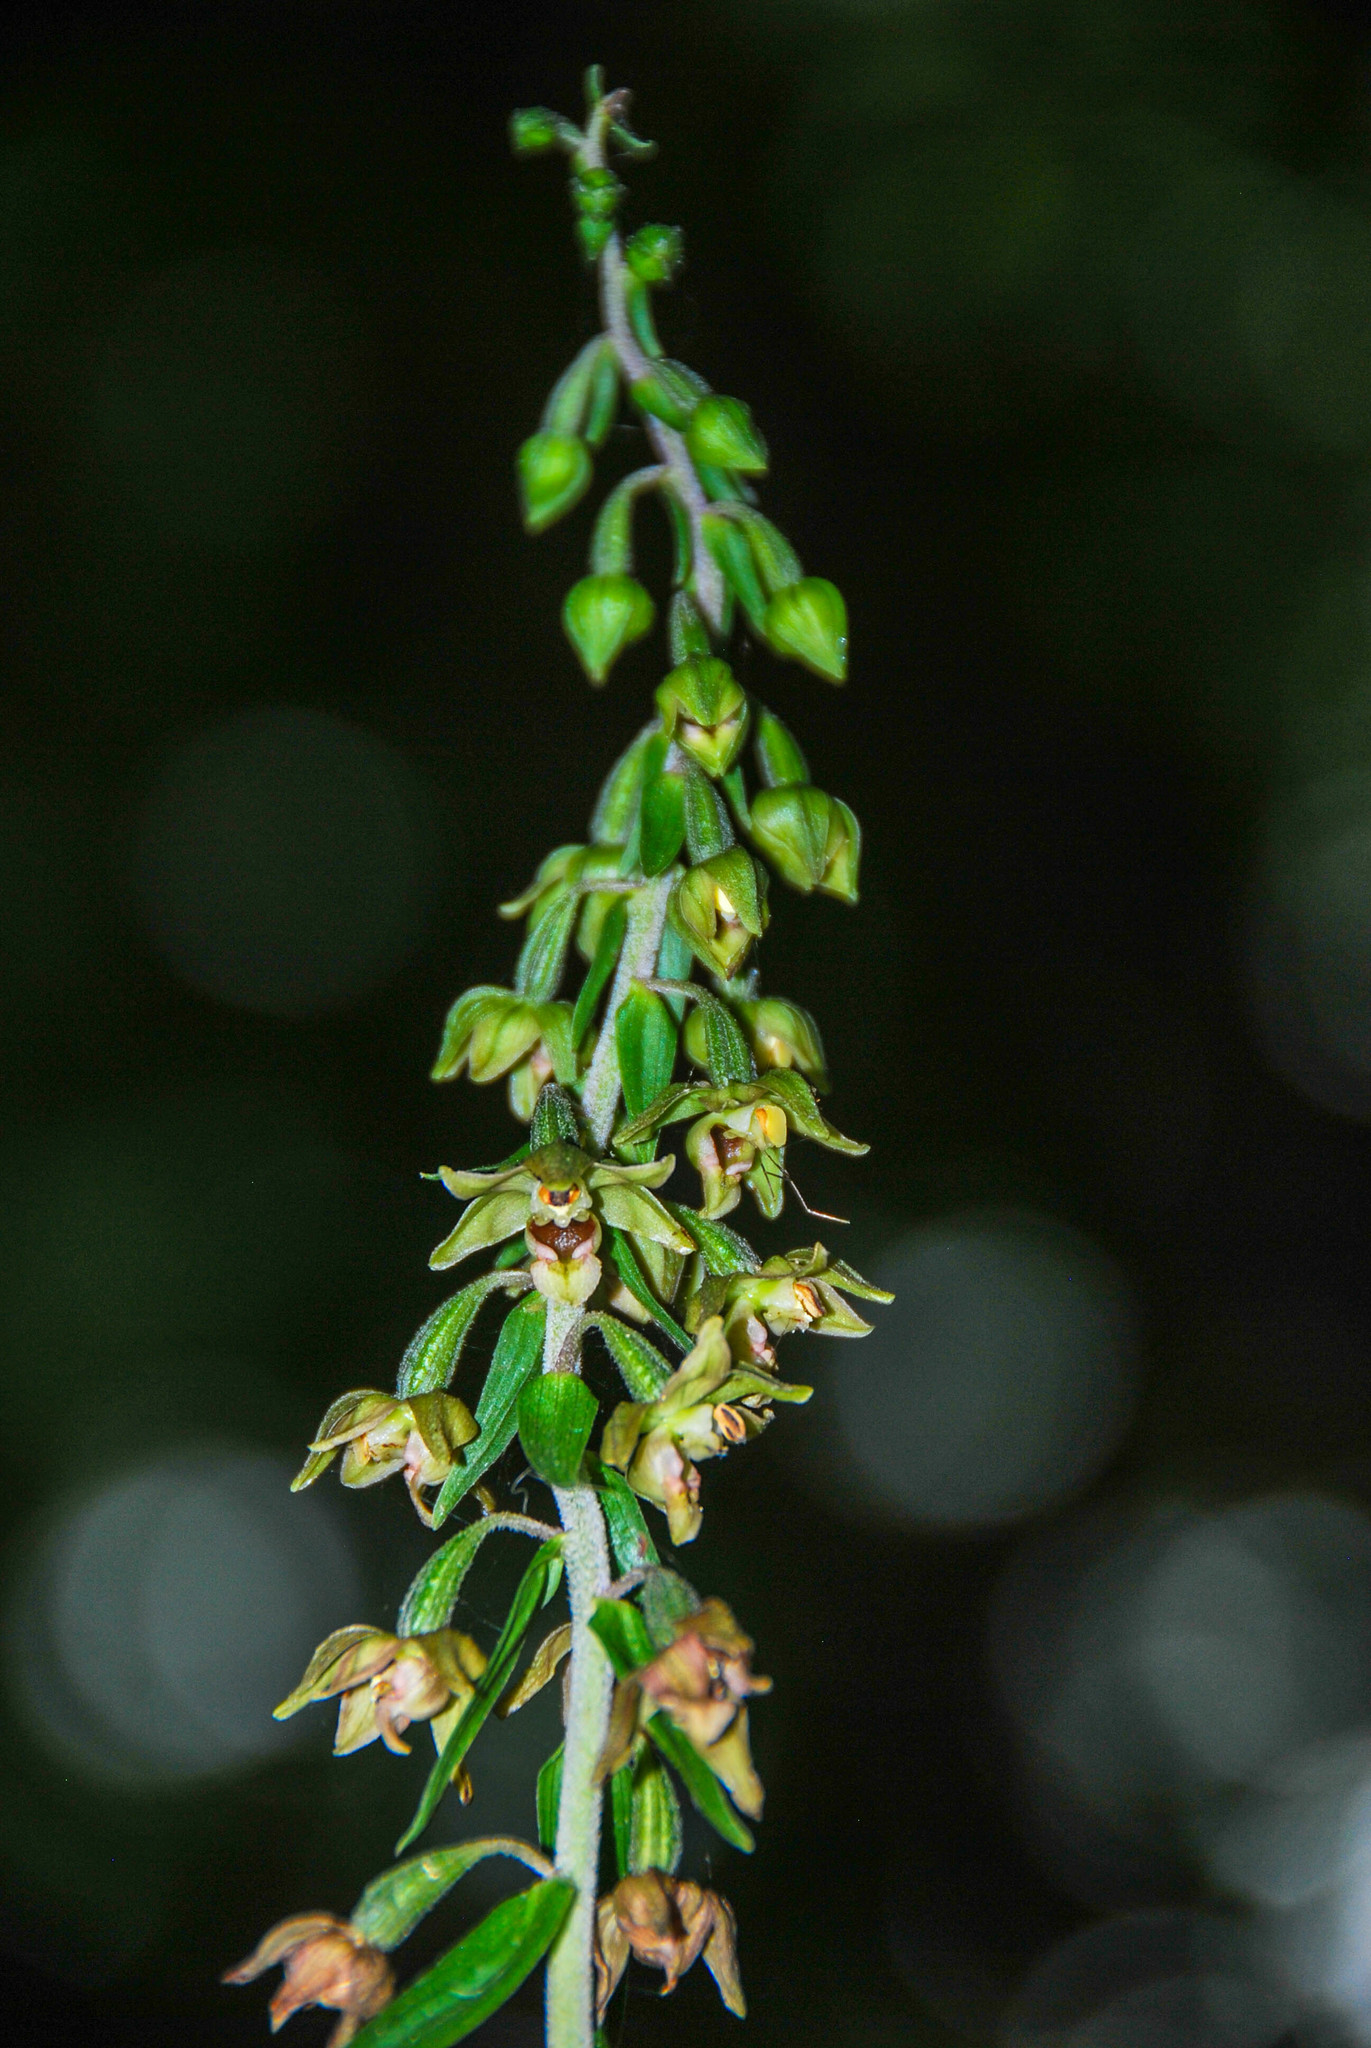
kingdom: Plantae
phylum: Tracheophyta
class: Liliopsida
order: Asparagales
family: Orchidaceae
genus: Epipactis
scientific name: Epipactis helleborine
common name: Broad-leaved helleborine
